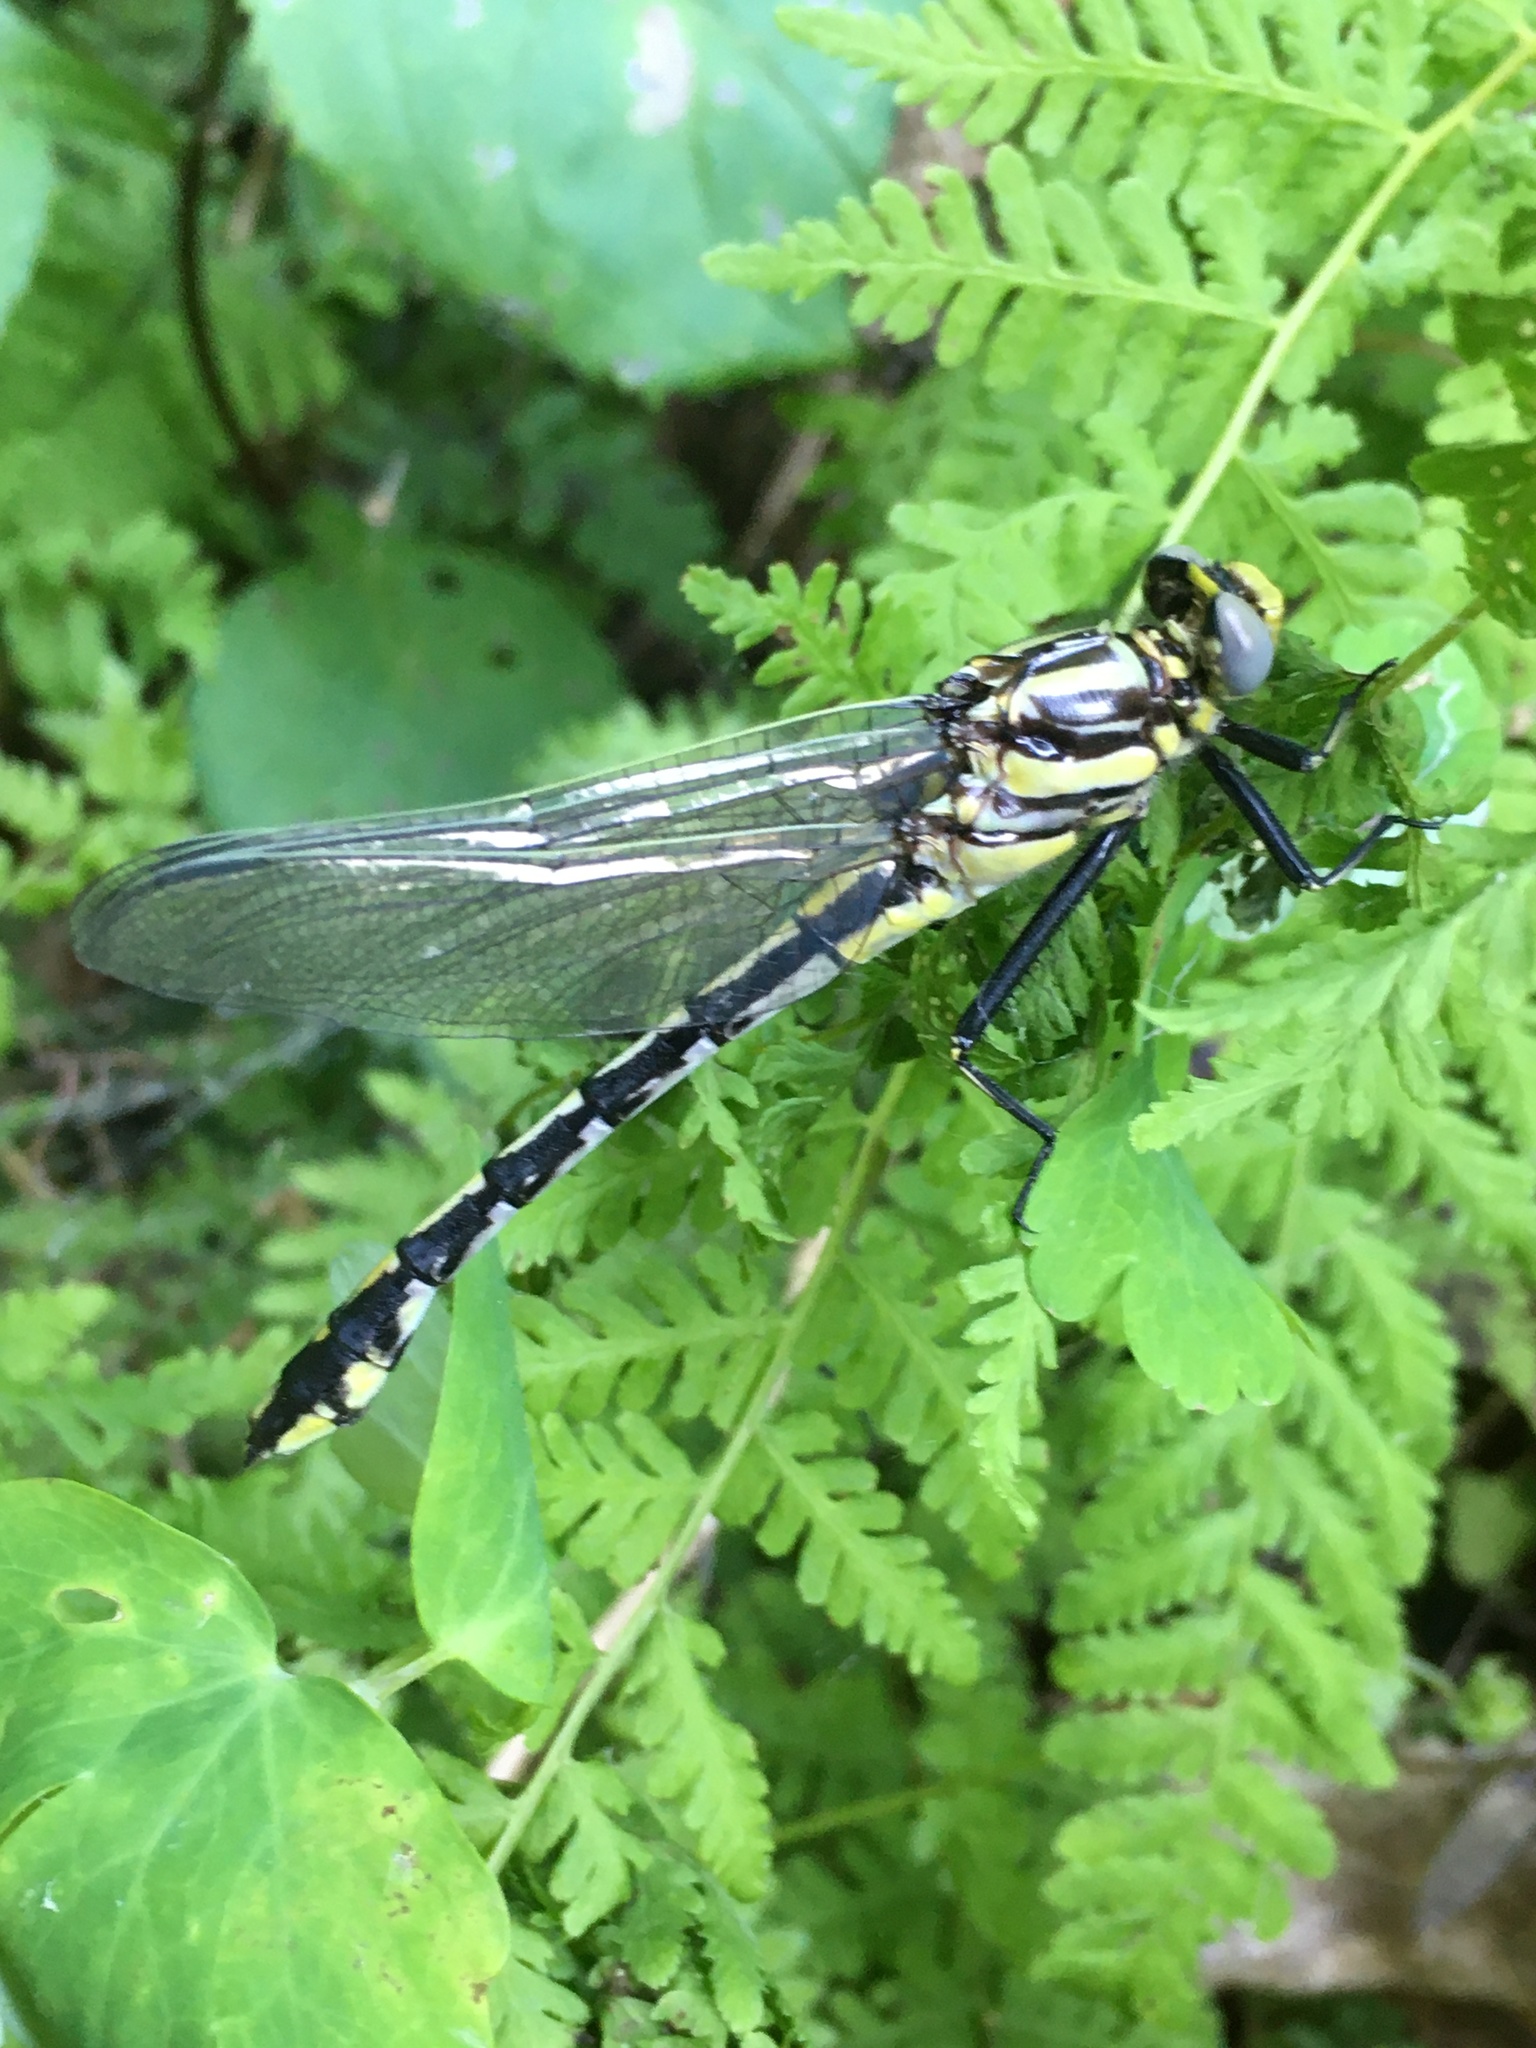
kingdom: Animalia
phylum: Arthropoda
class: Insecta
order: Odonata
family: Gomphidae
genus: Gomphurus
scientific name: Gomphurus externus
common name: Plains clubtail
